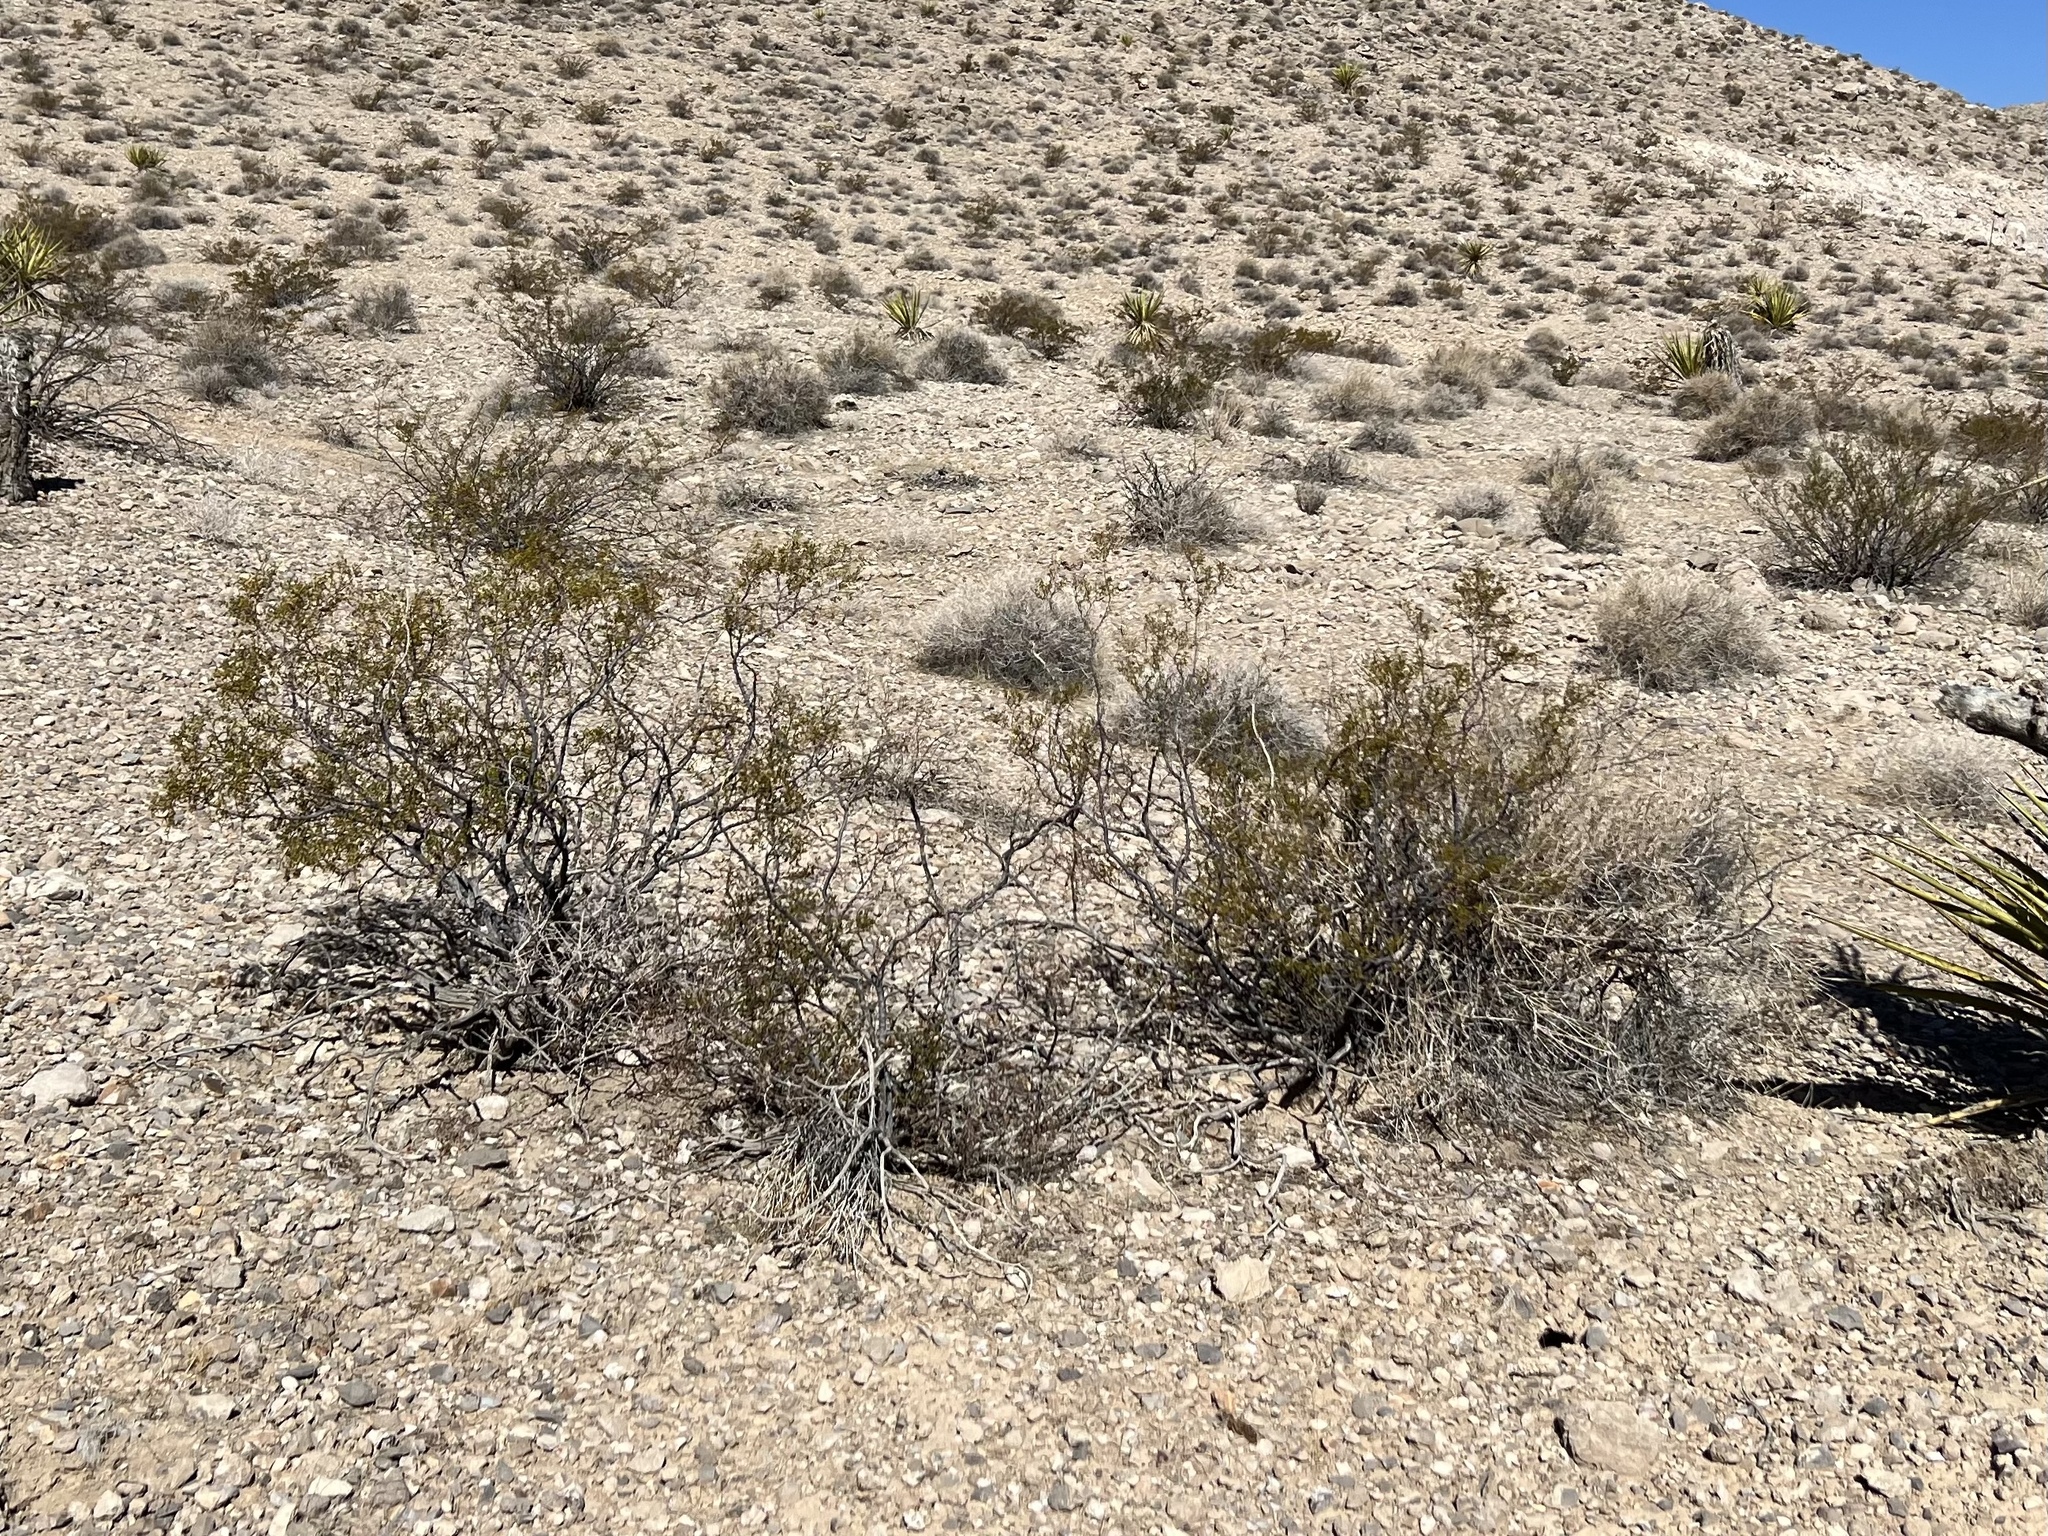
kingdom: Plantae
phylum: Tracheophyta
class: Magnoliopsida
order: Zygophyllales
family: Zygophyllaceae
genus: Larrea
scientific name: Larrea tridentata
